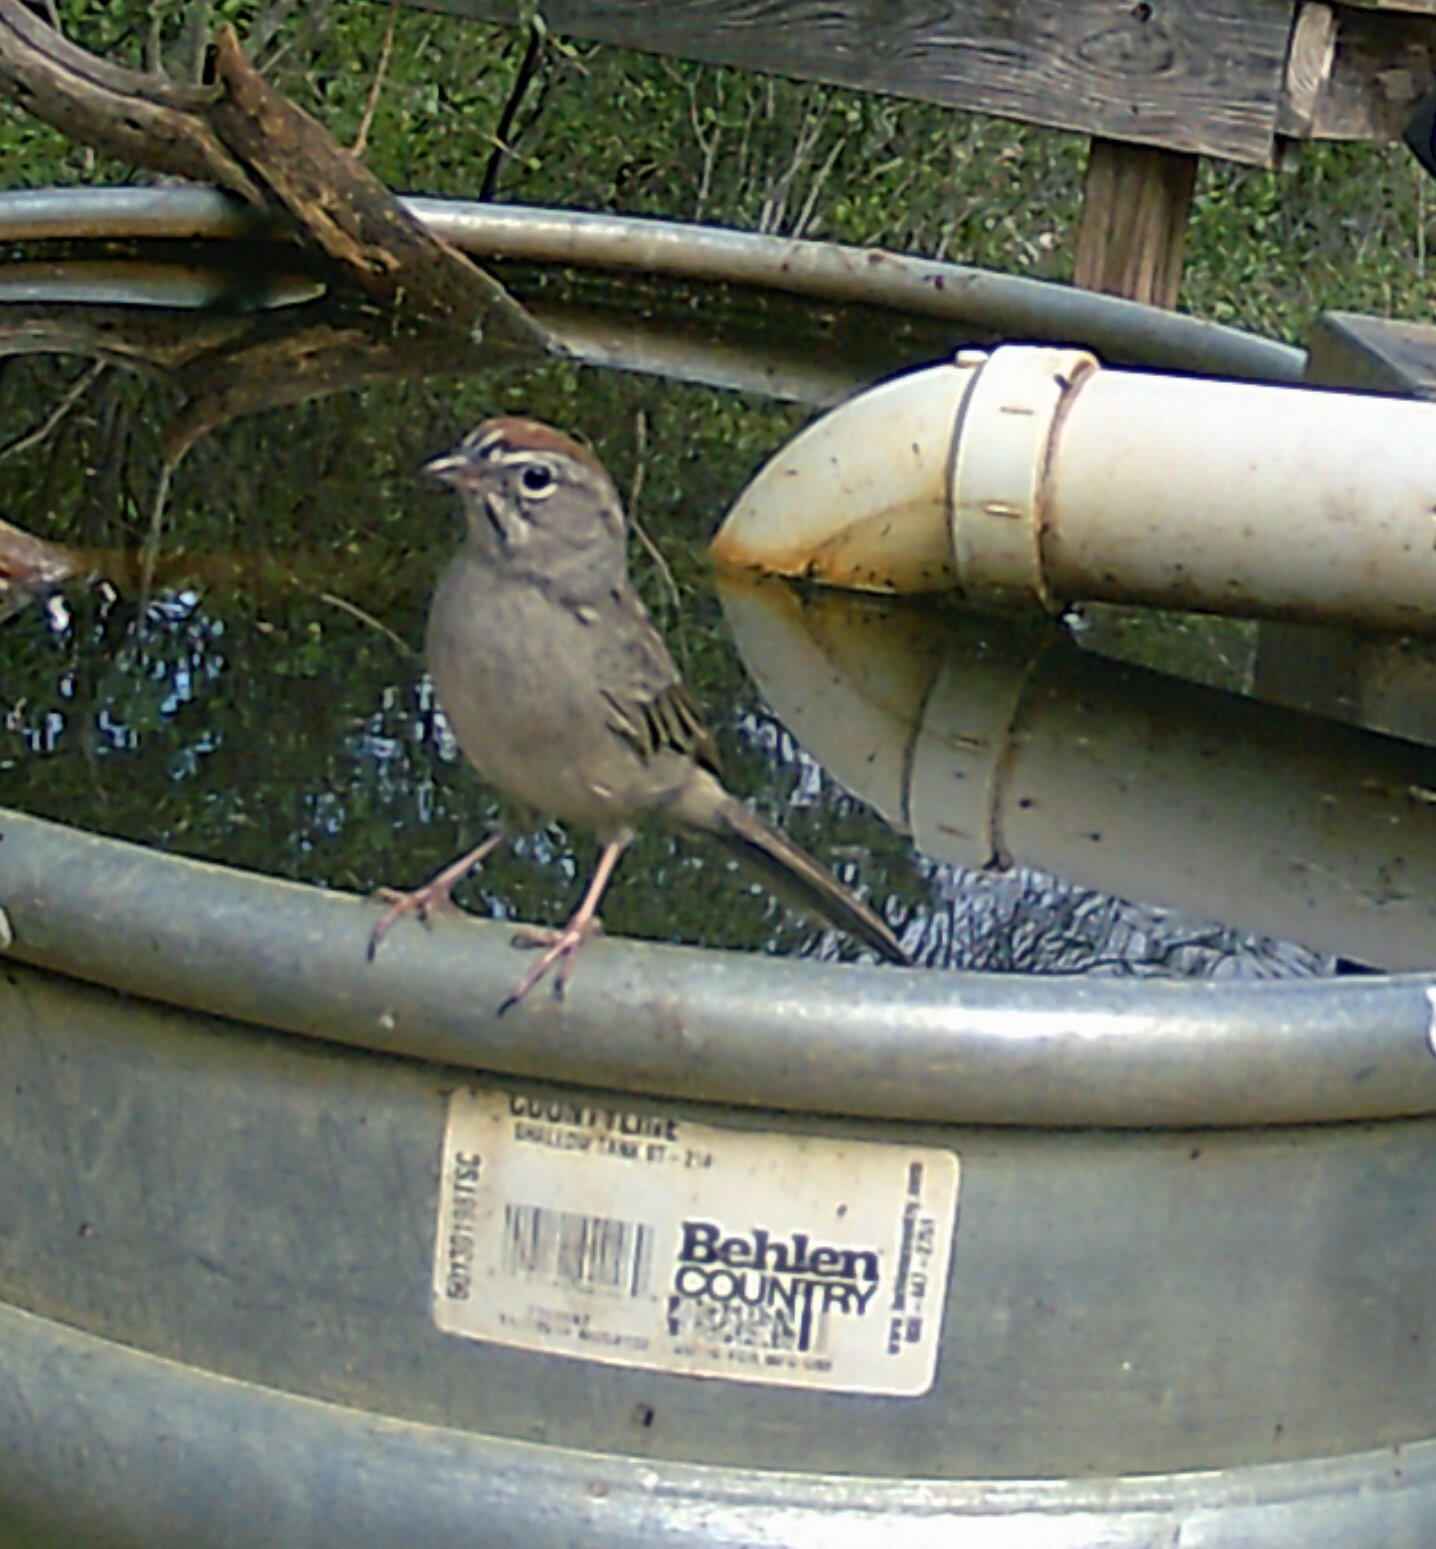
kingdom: Animalia
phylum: Chordata
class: Aves
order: Passeriformes
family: Passerellidae
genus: Aimophila
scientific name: Aimophila ruficeps
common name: Rufous-crowned sparrow
